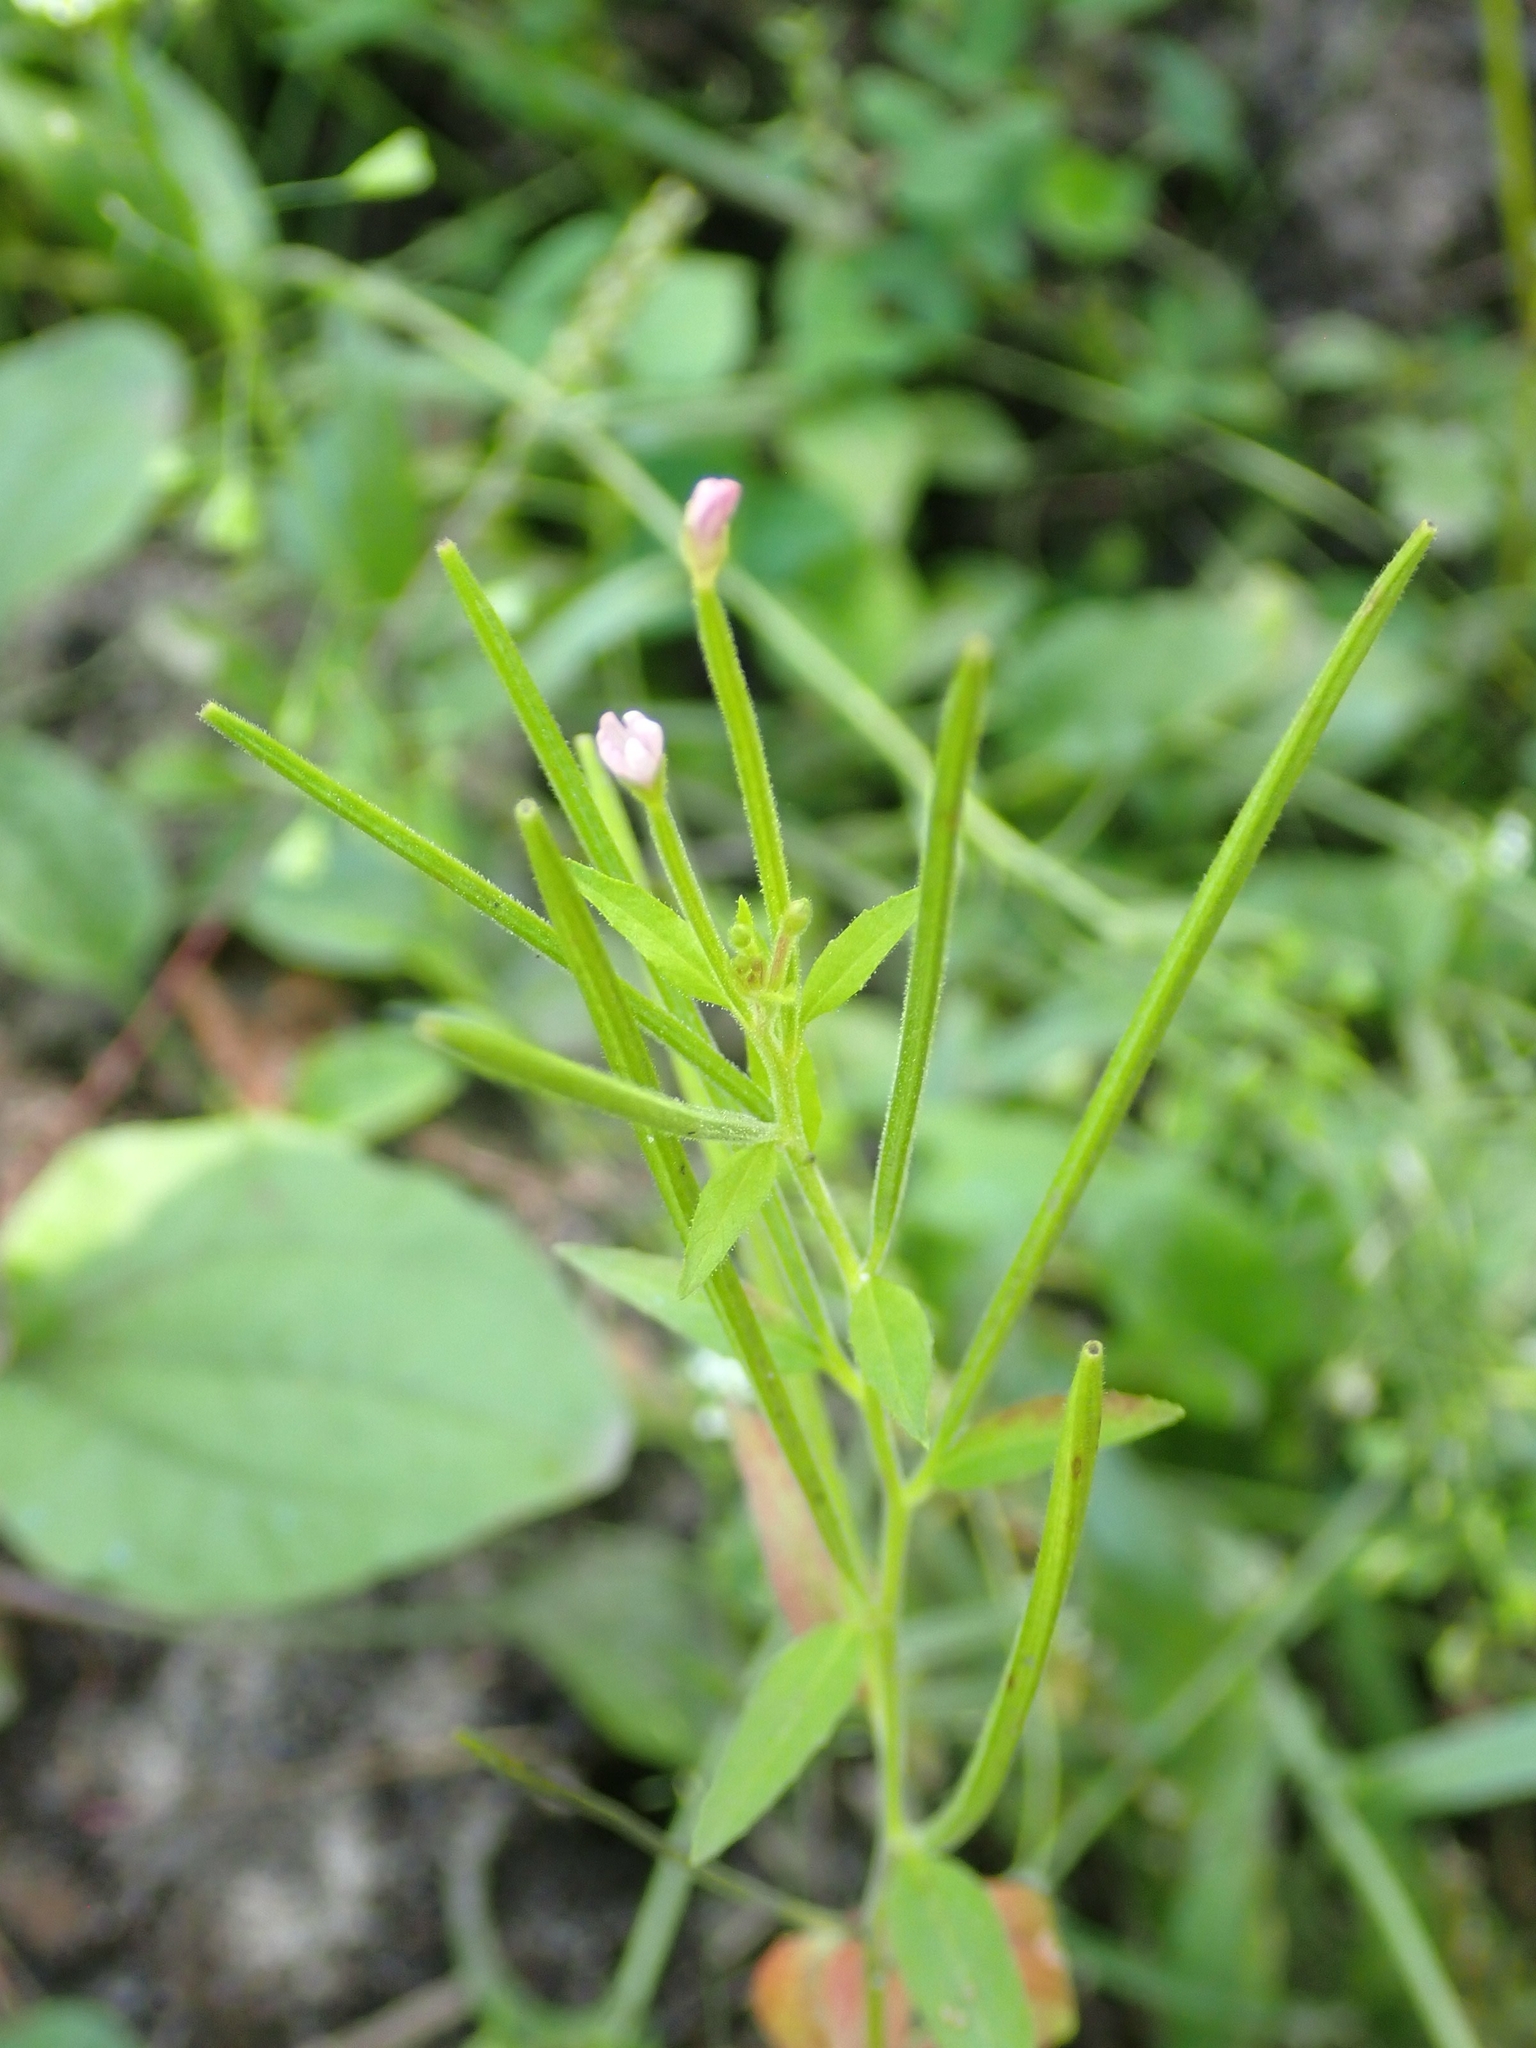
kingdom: Plantae
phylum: Tracheophyta
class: Magnoliopsida
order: Myrtales
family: Onagraceae
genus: Epilobium
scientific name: Epilobium ciliatum
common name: American willowherb
